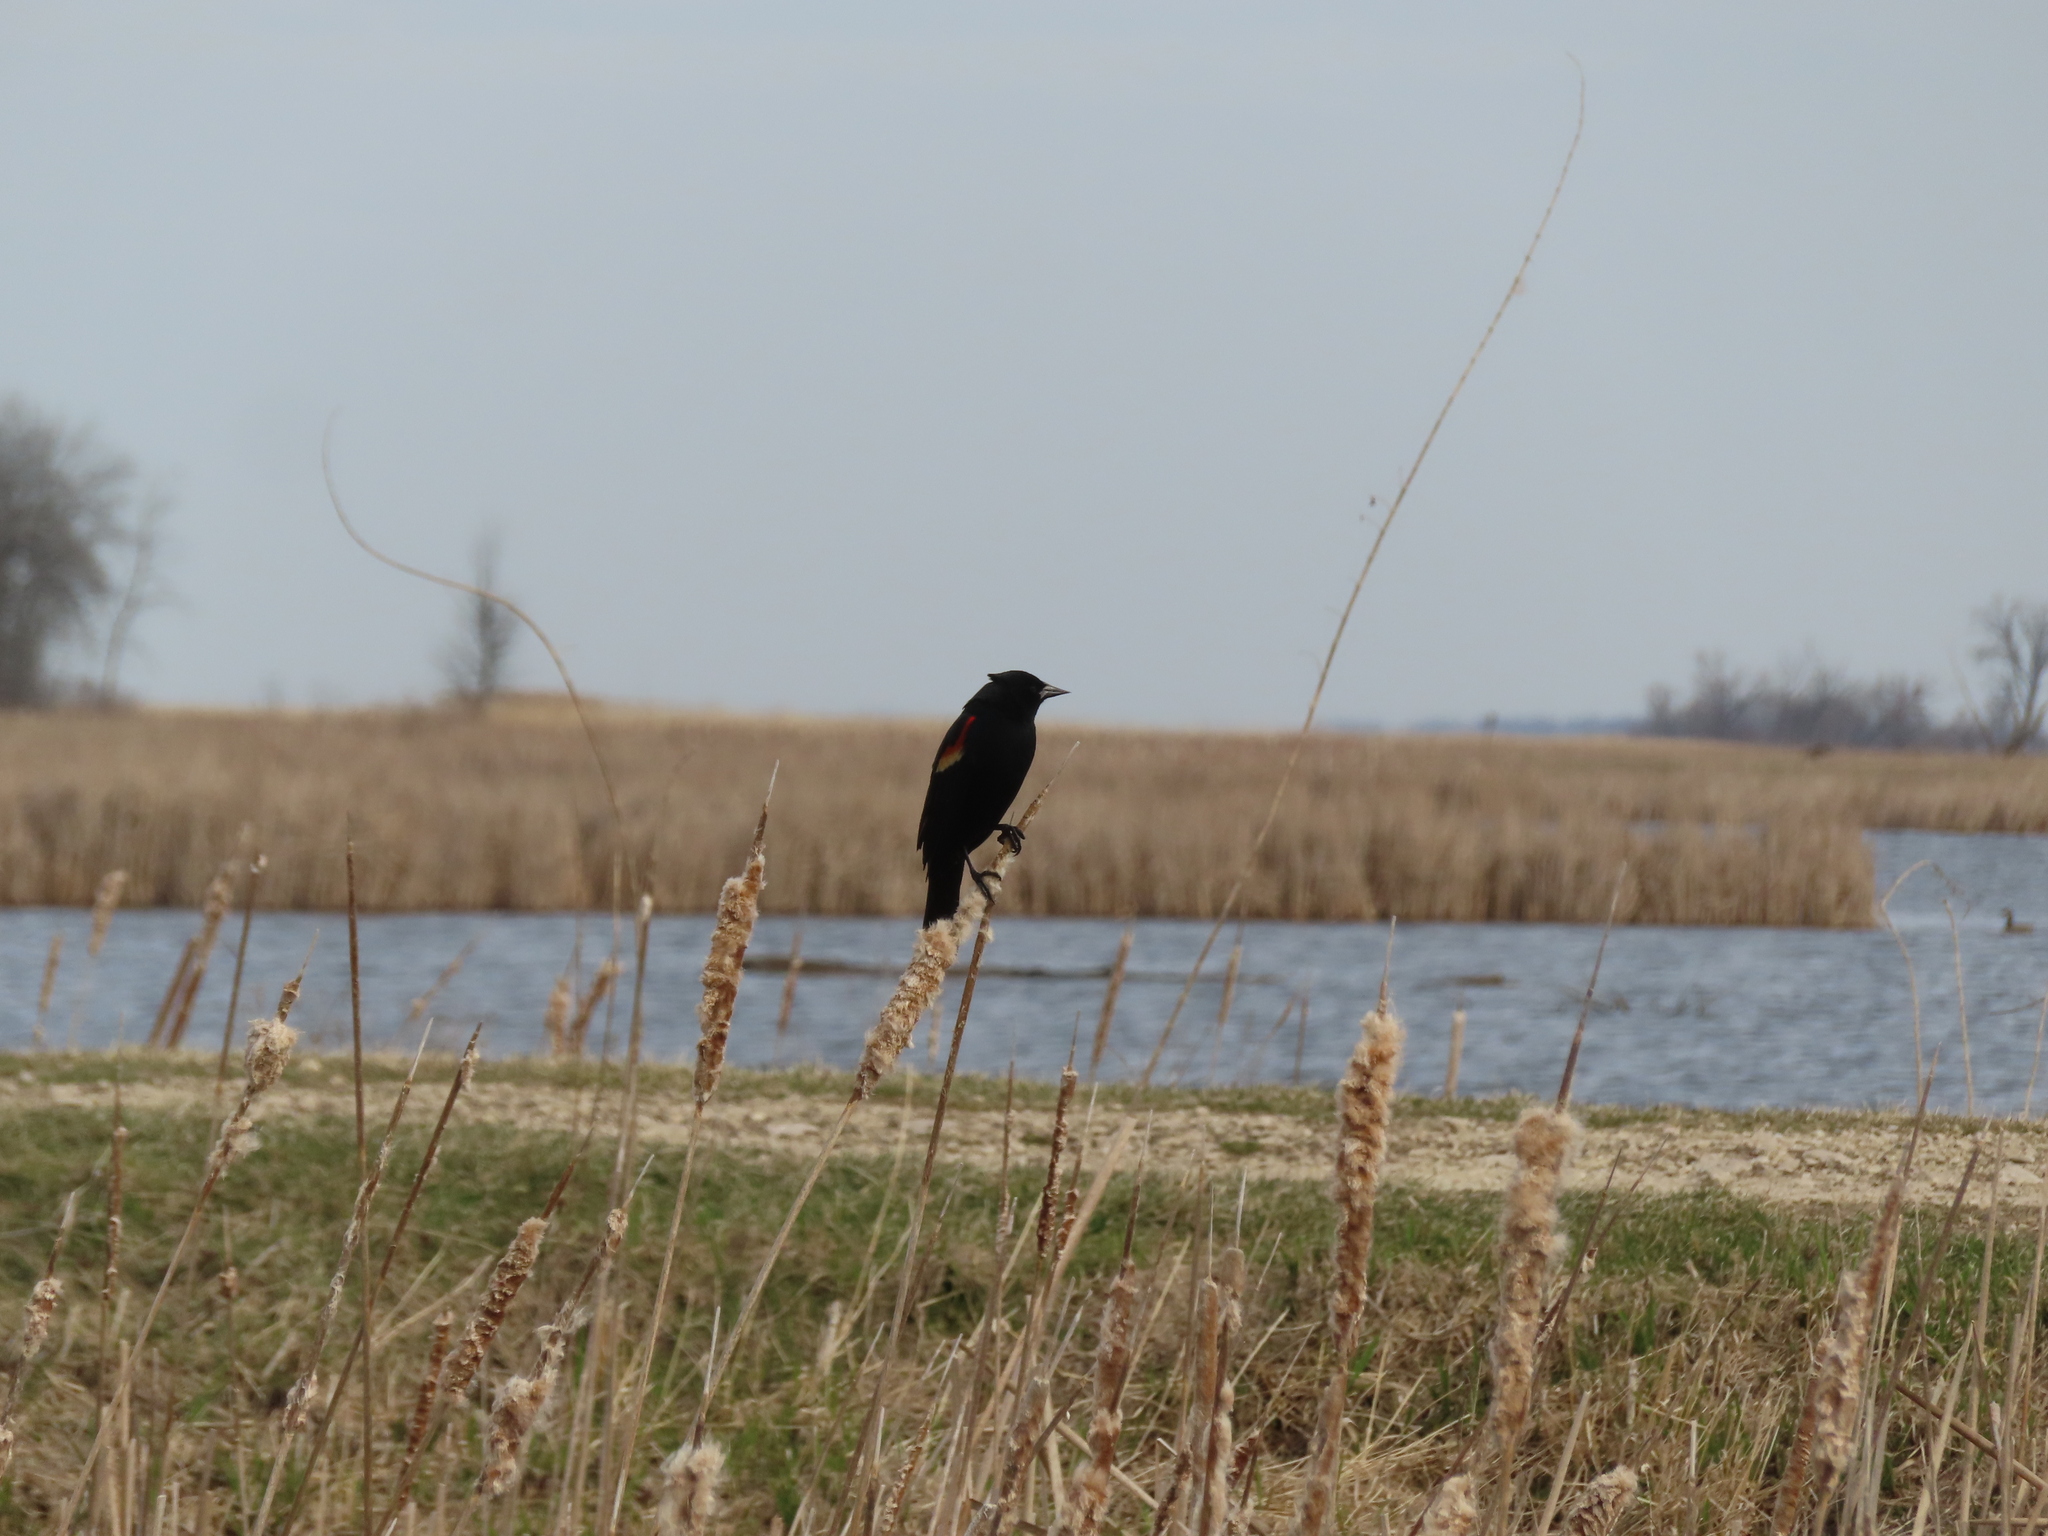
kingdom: Animalia
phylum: Chordata
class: Aves
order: Passeriformes
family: Icteridae
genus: Agelaius
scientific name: Agelaius phoeniceus
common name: Red-winged blackbird
